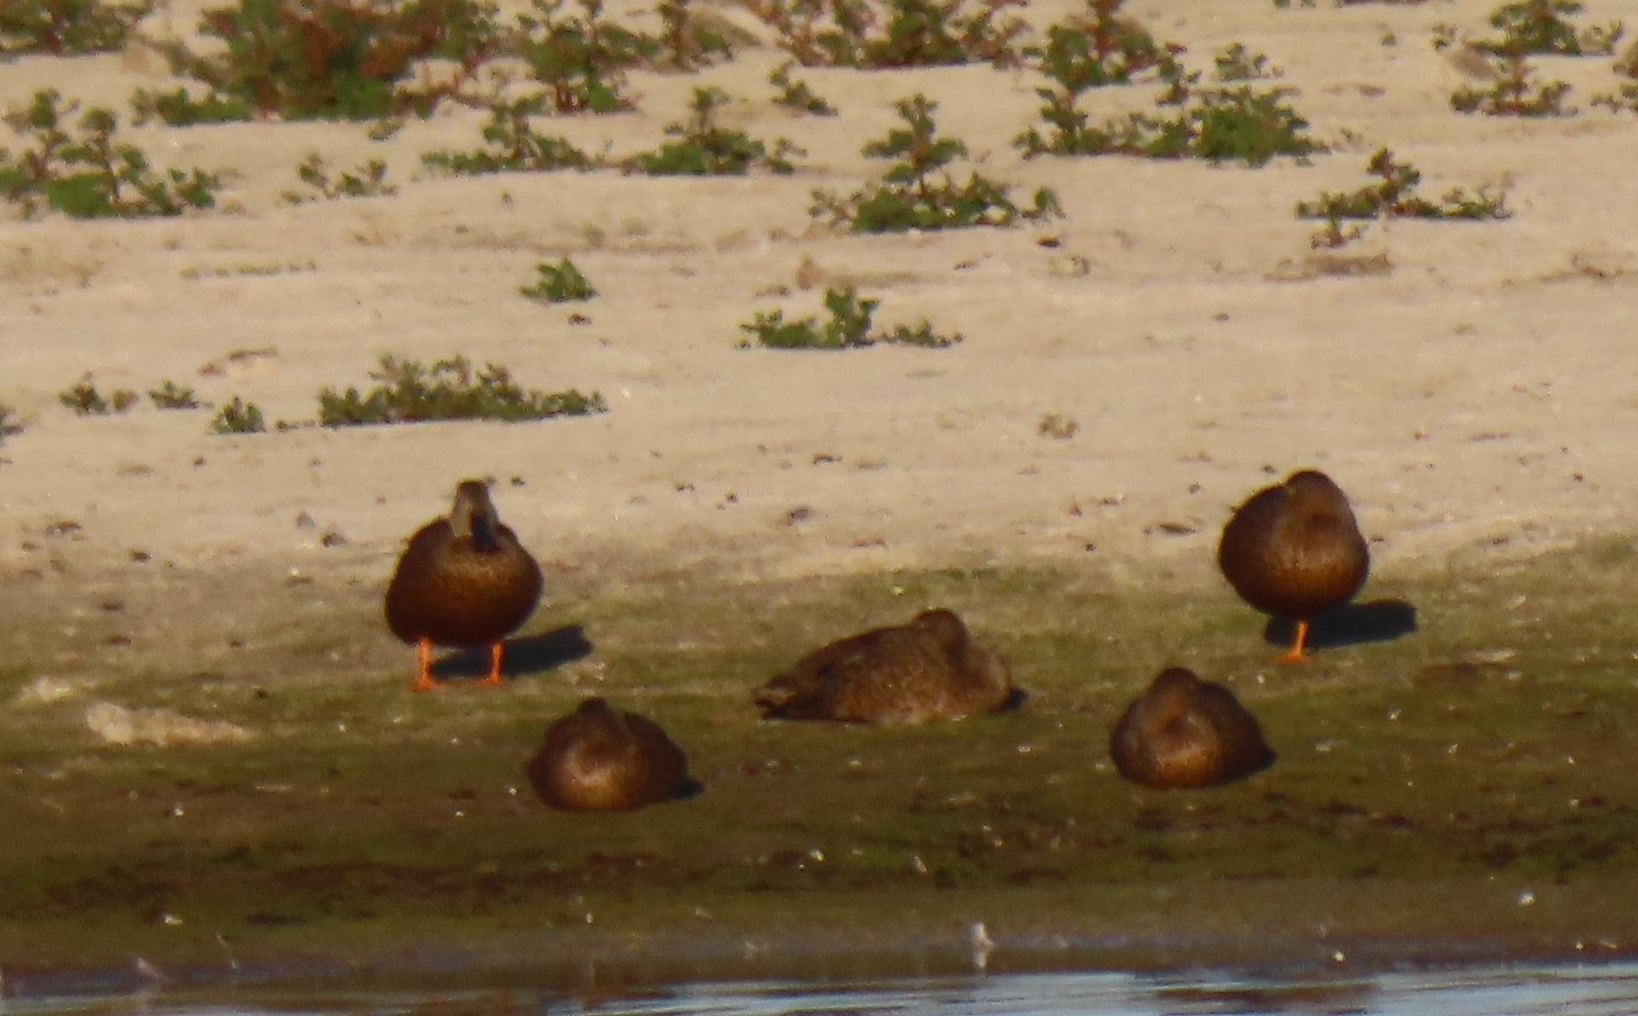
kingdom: Animalia
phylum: Chordata
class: Aves
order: Anseriformes
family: Anatidae
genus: Spatula
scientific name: Spatula smithii
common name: Cape shoveler
